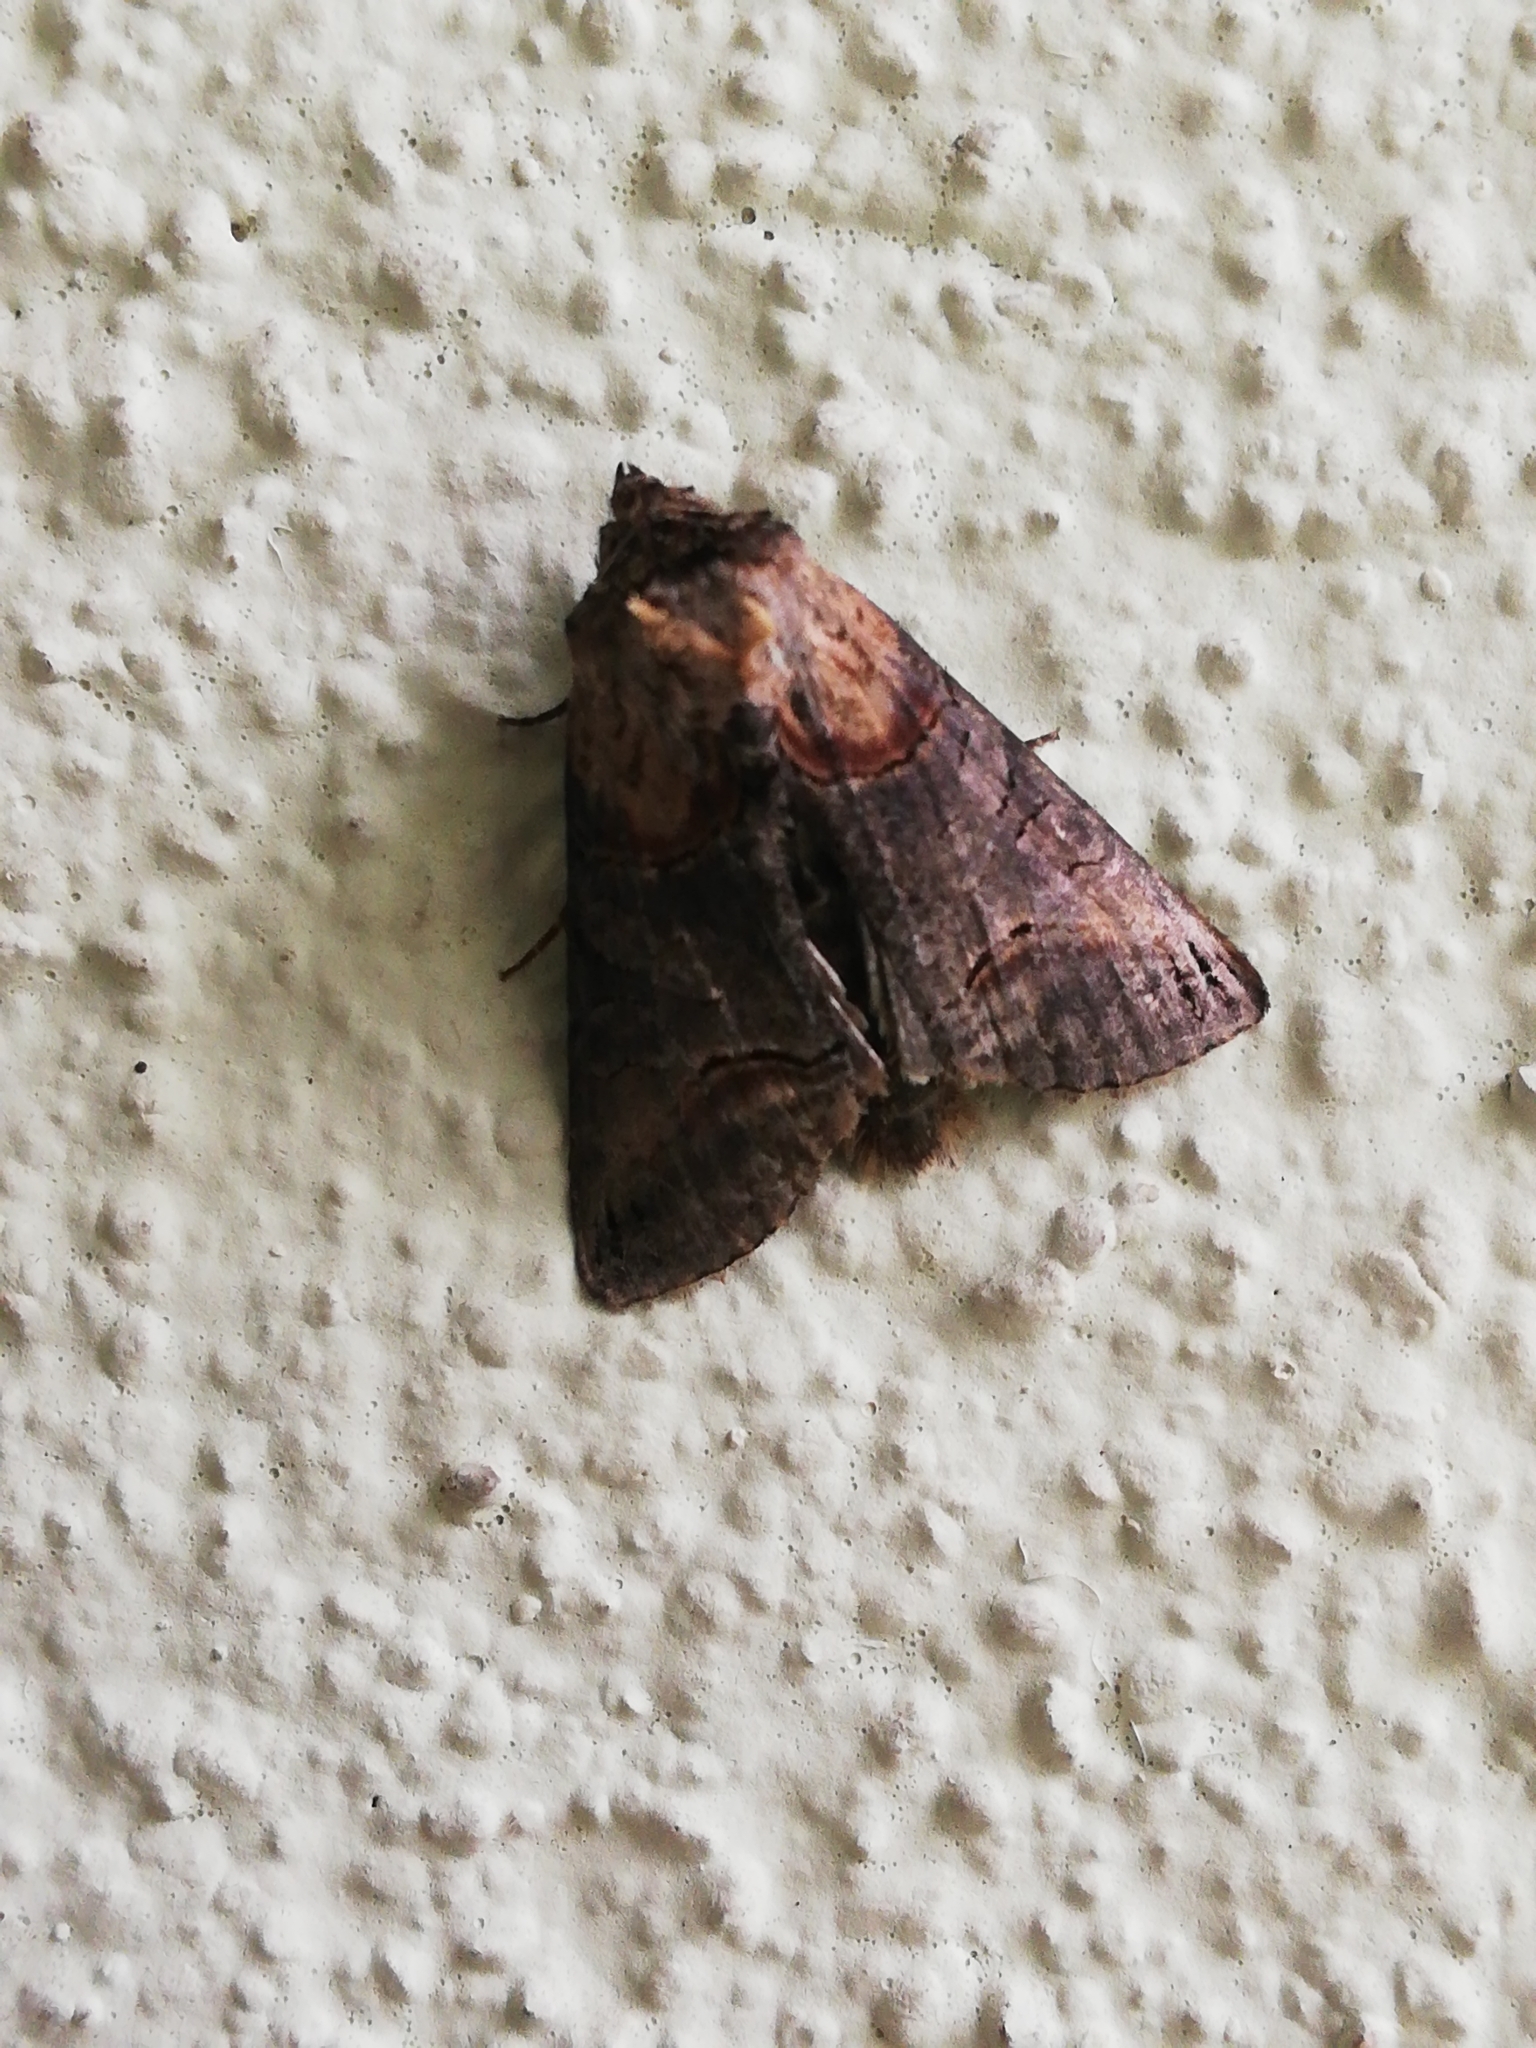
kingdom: Animalia
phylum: Arthropoda
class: Insecta
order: Lepidoptera
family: Noctuidae
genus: Abrostola
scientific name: Abrostola triplasia
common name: Dark spectacle
